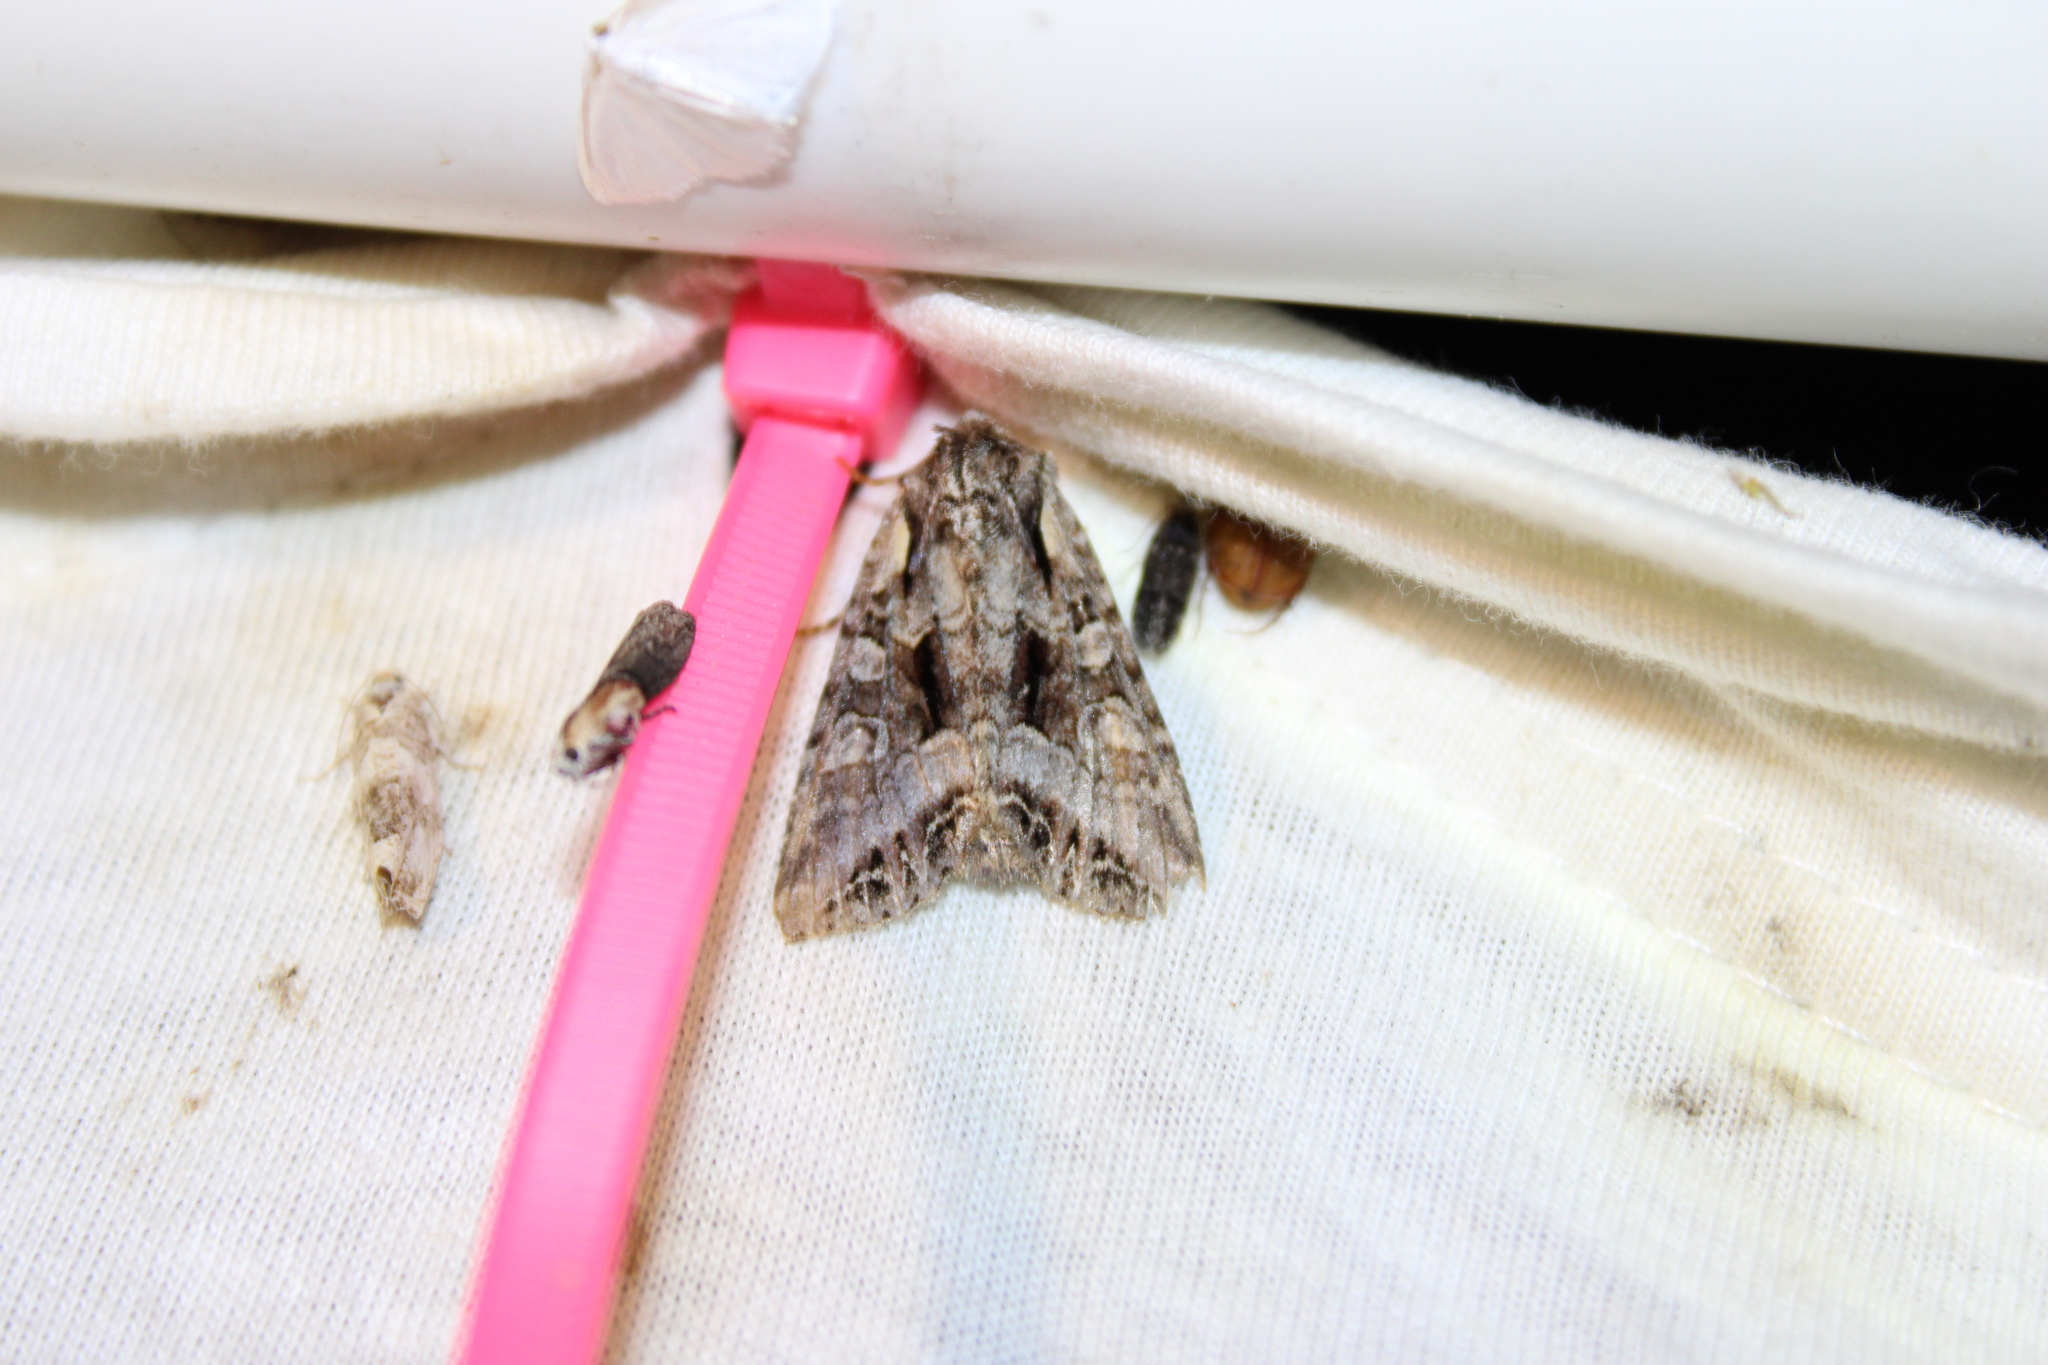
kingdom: Animalia
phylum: Arthropoda
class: Insecta
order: Lepidoptera
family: Noctuidae
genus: Lacanobia
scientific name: Lacanobia grandis
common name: Grand arches moth
